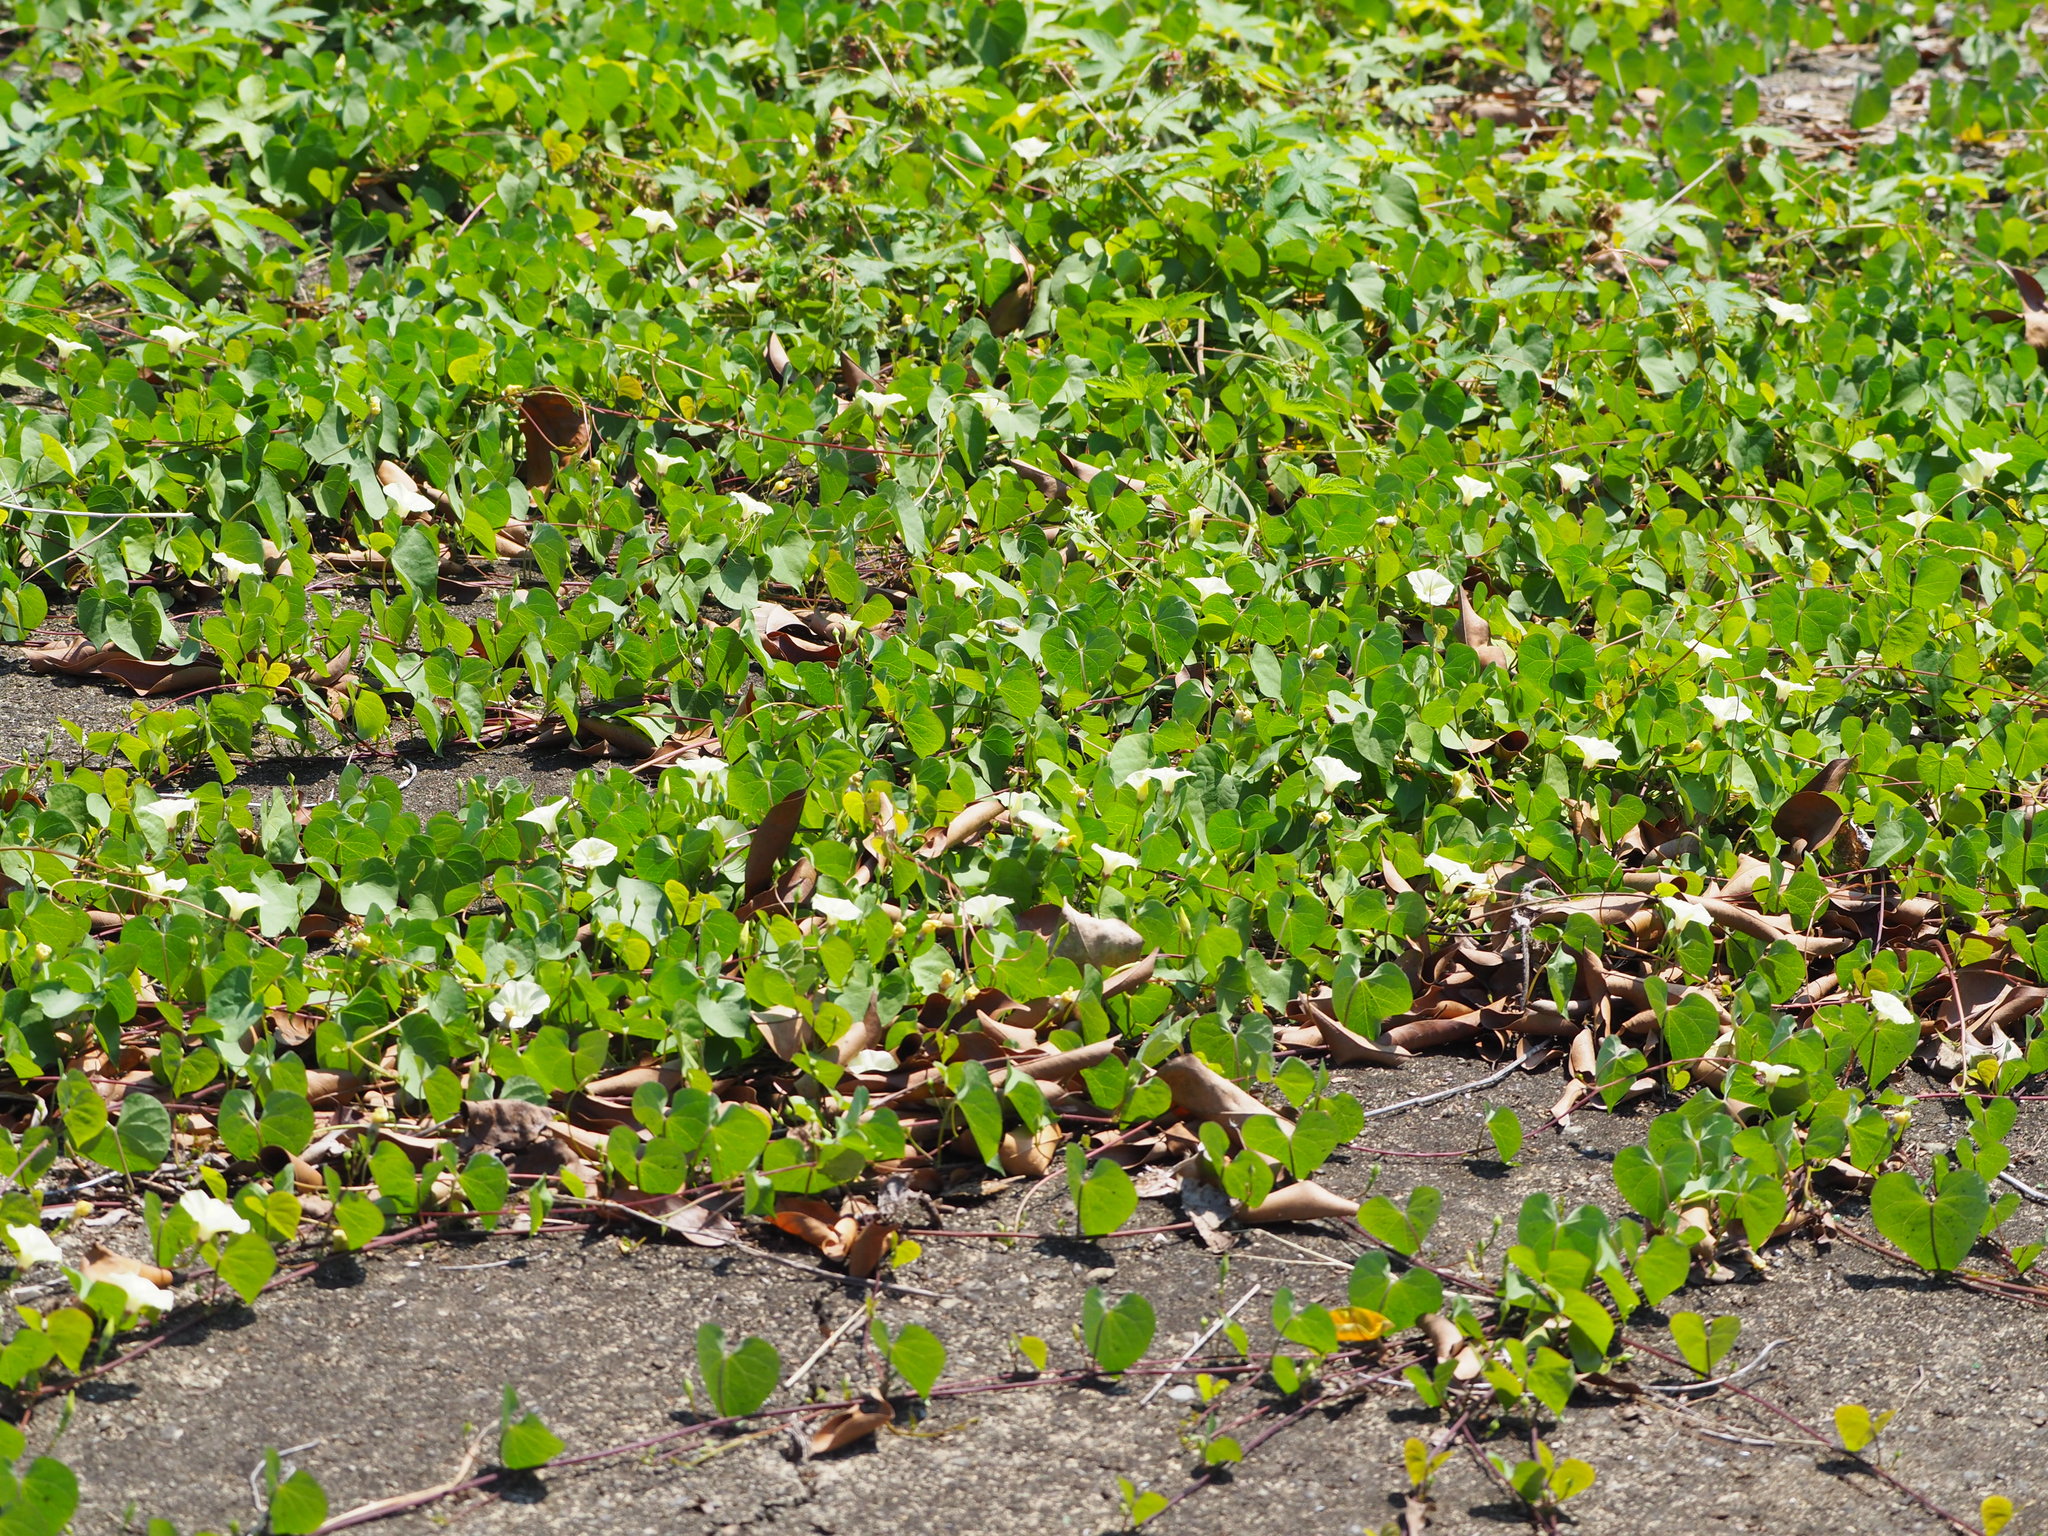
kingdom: Plantae
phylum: Tracheophyta
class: Magnoliopsida
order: Solanales
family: Convolvulaceae
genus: Ipomoea
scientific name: Ipomoea obscura
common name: Obscure morning-glory
